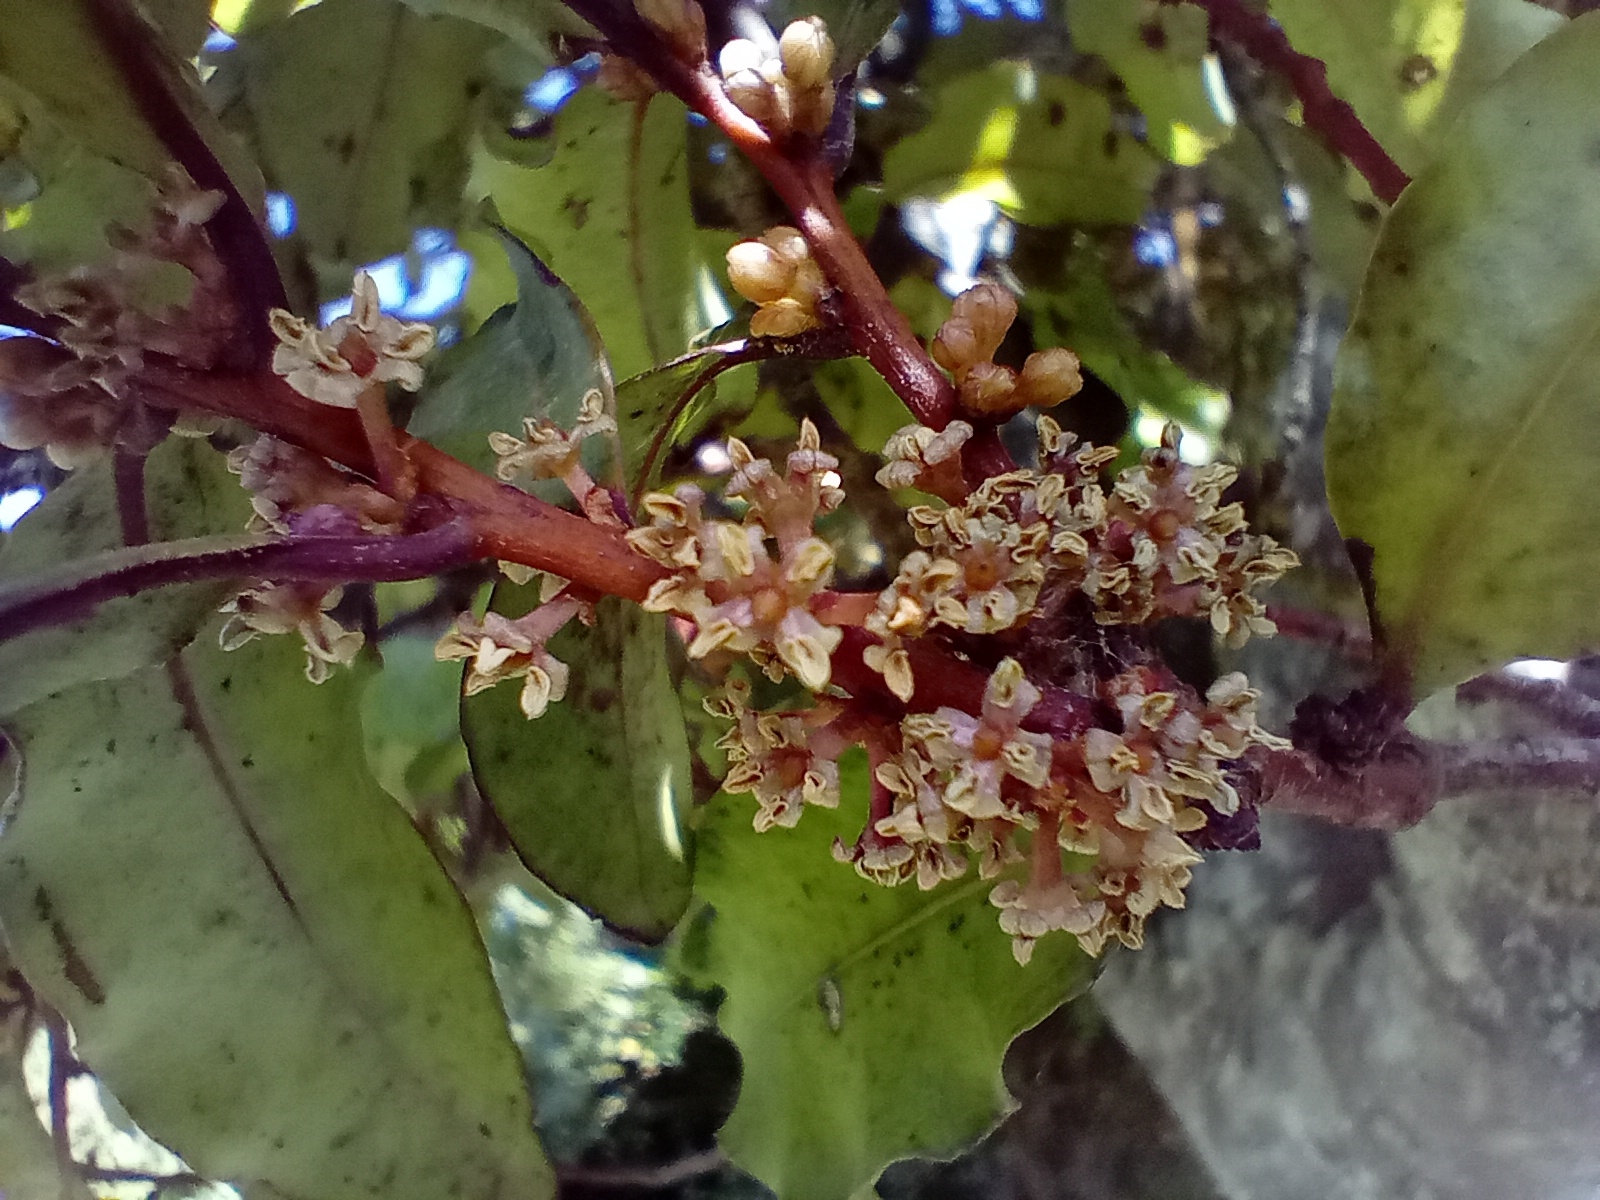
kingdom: Plantae
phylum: Tracheophyta
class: Magnoliopsida
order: Ericales
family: Primulaceae
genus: Myrsine
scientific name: Myrsine australis
